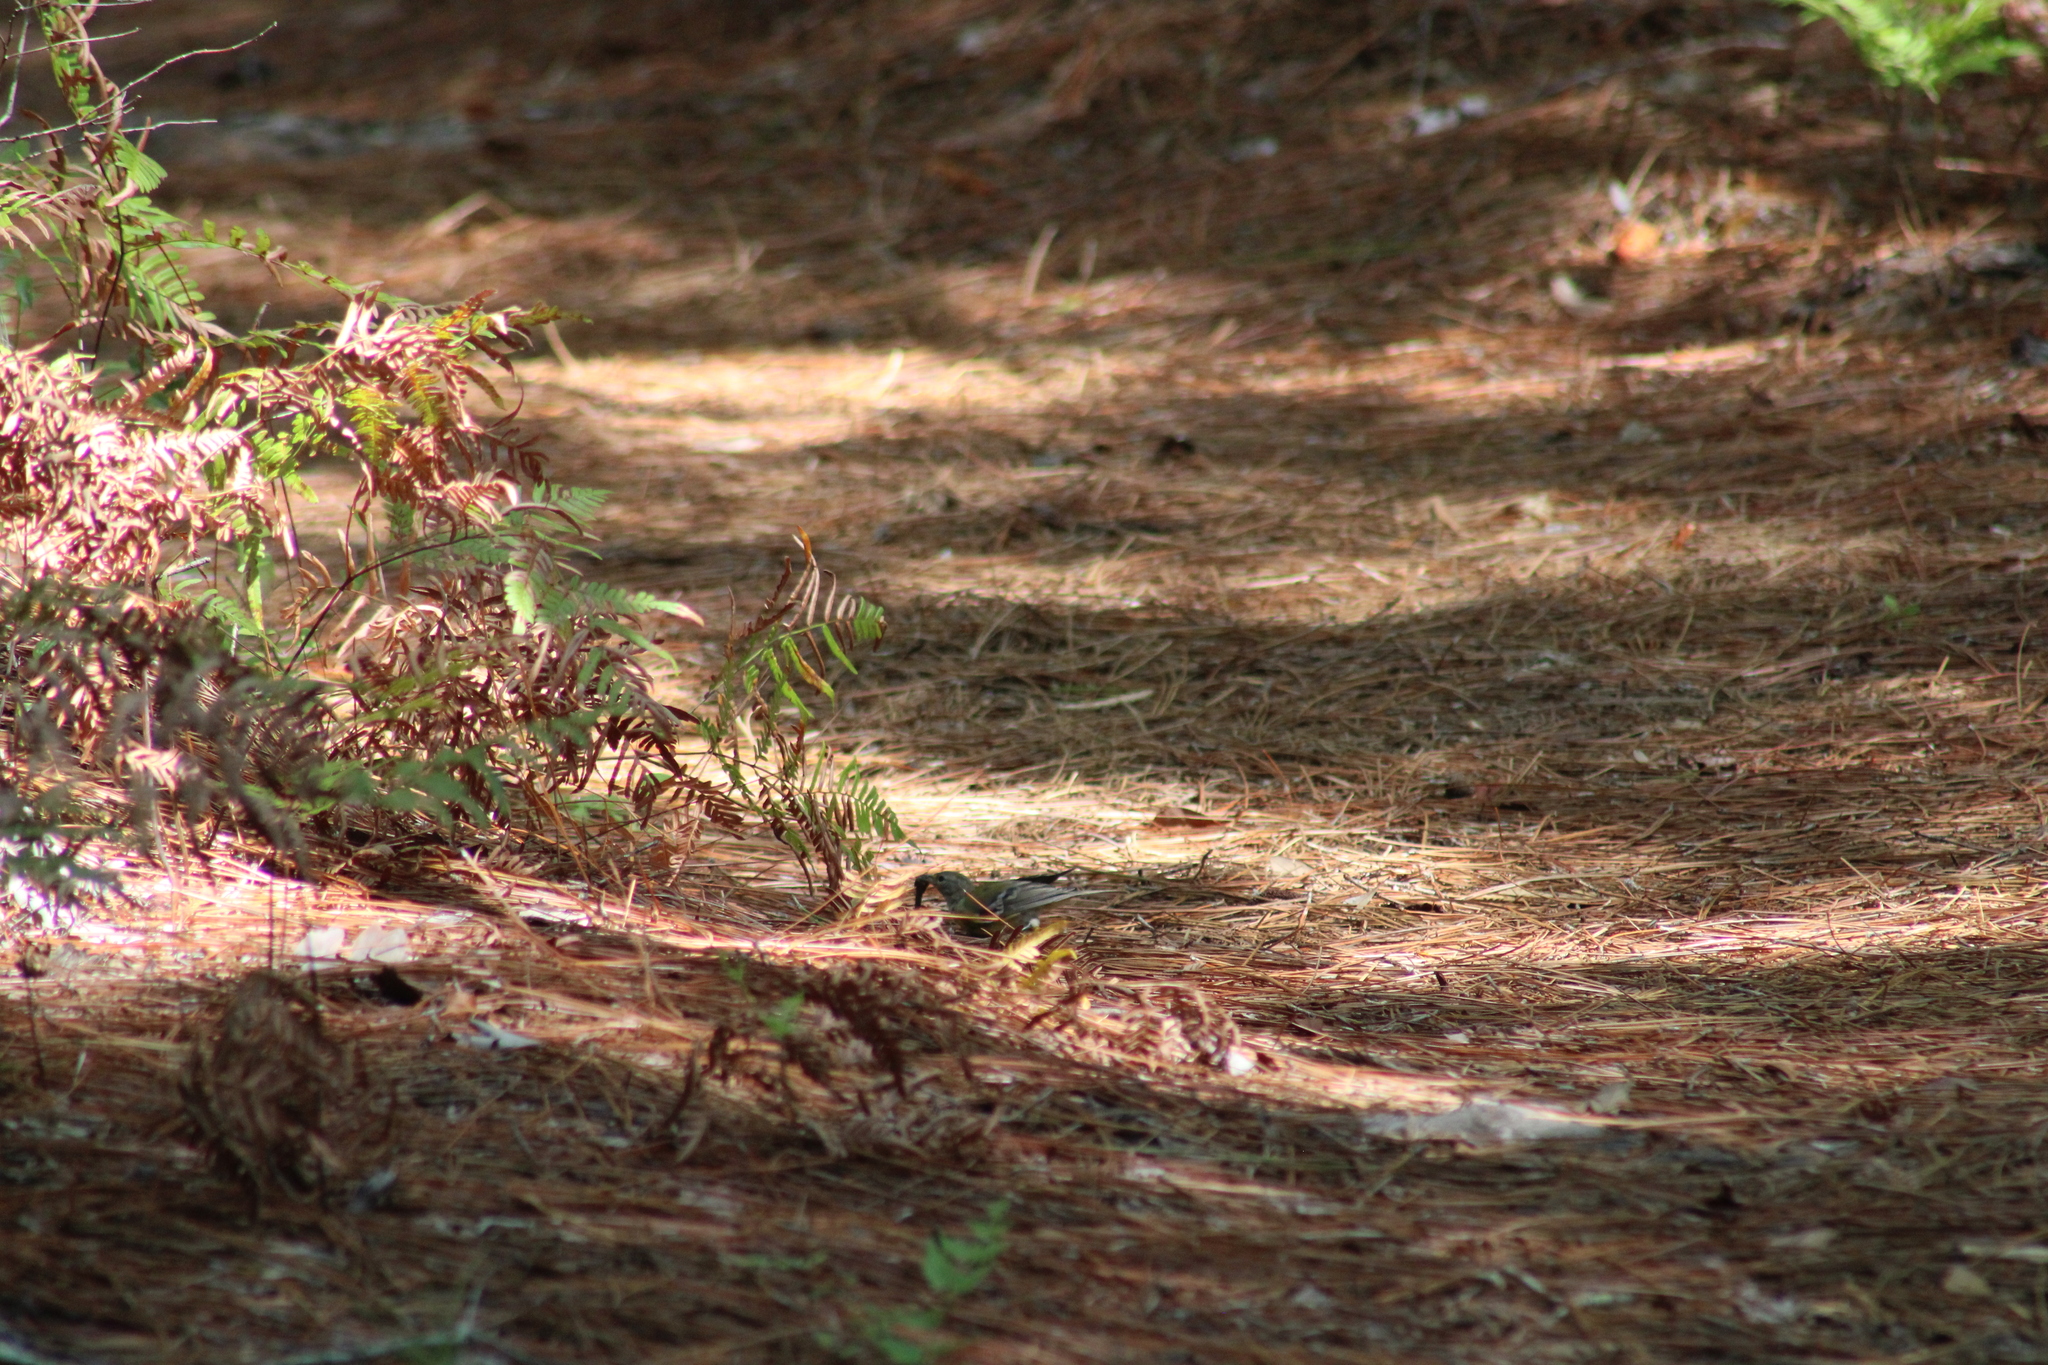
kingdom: Animalia
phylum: Chordata
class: Aves
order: Passeriformes
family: Parulidae
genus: Setophaga
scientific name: Setophaga pinus
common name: Pine warbler
